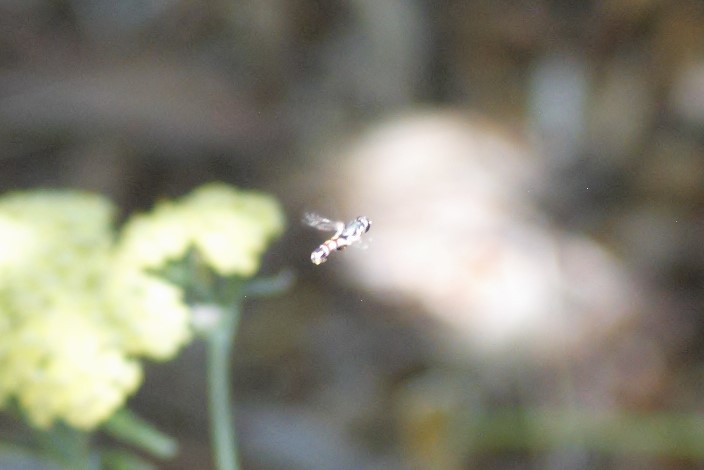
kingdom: Animalia
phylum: Arthropoda
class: Insecta
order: Diptera
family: Syrphidae
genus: Syritta
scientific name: Syritta
